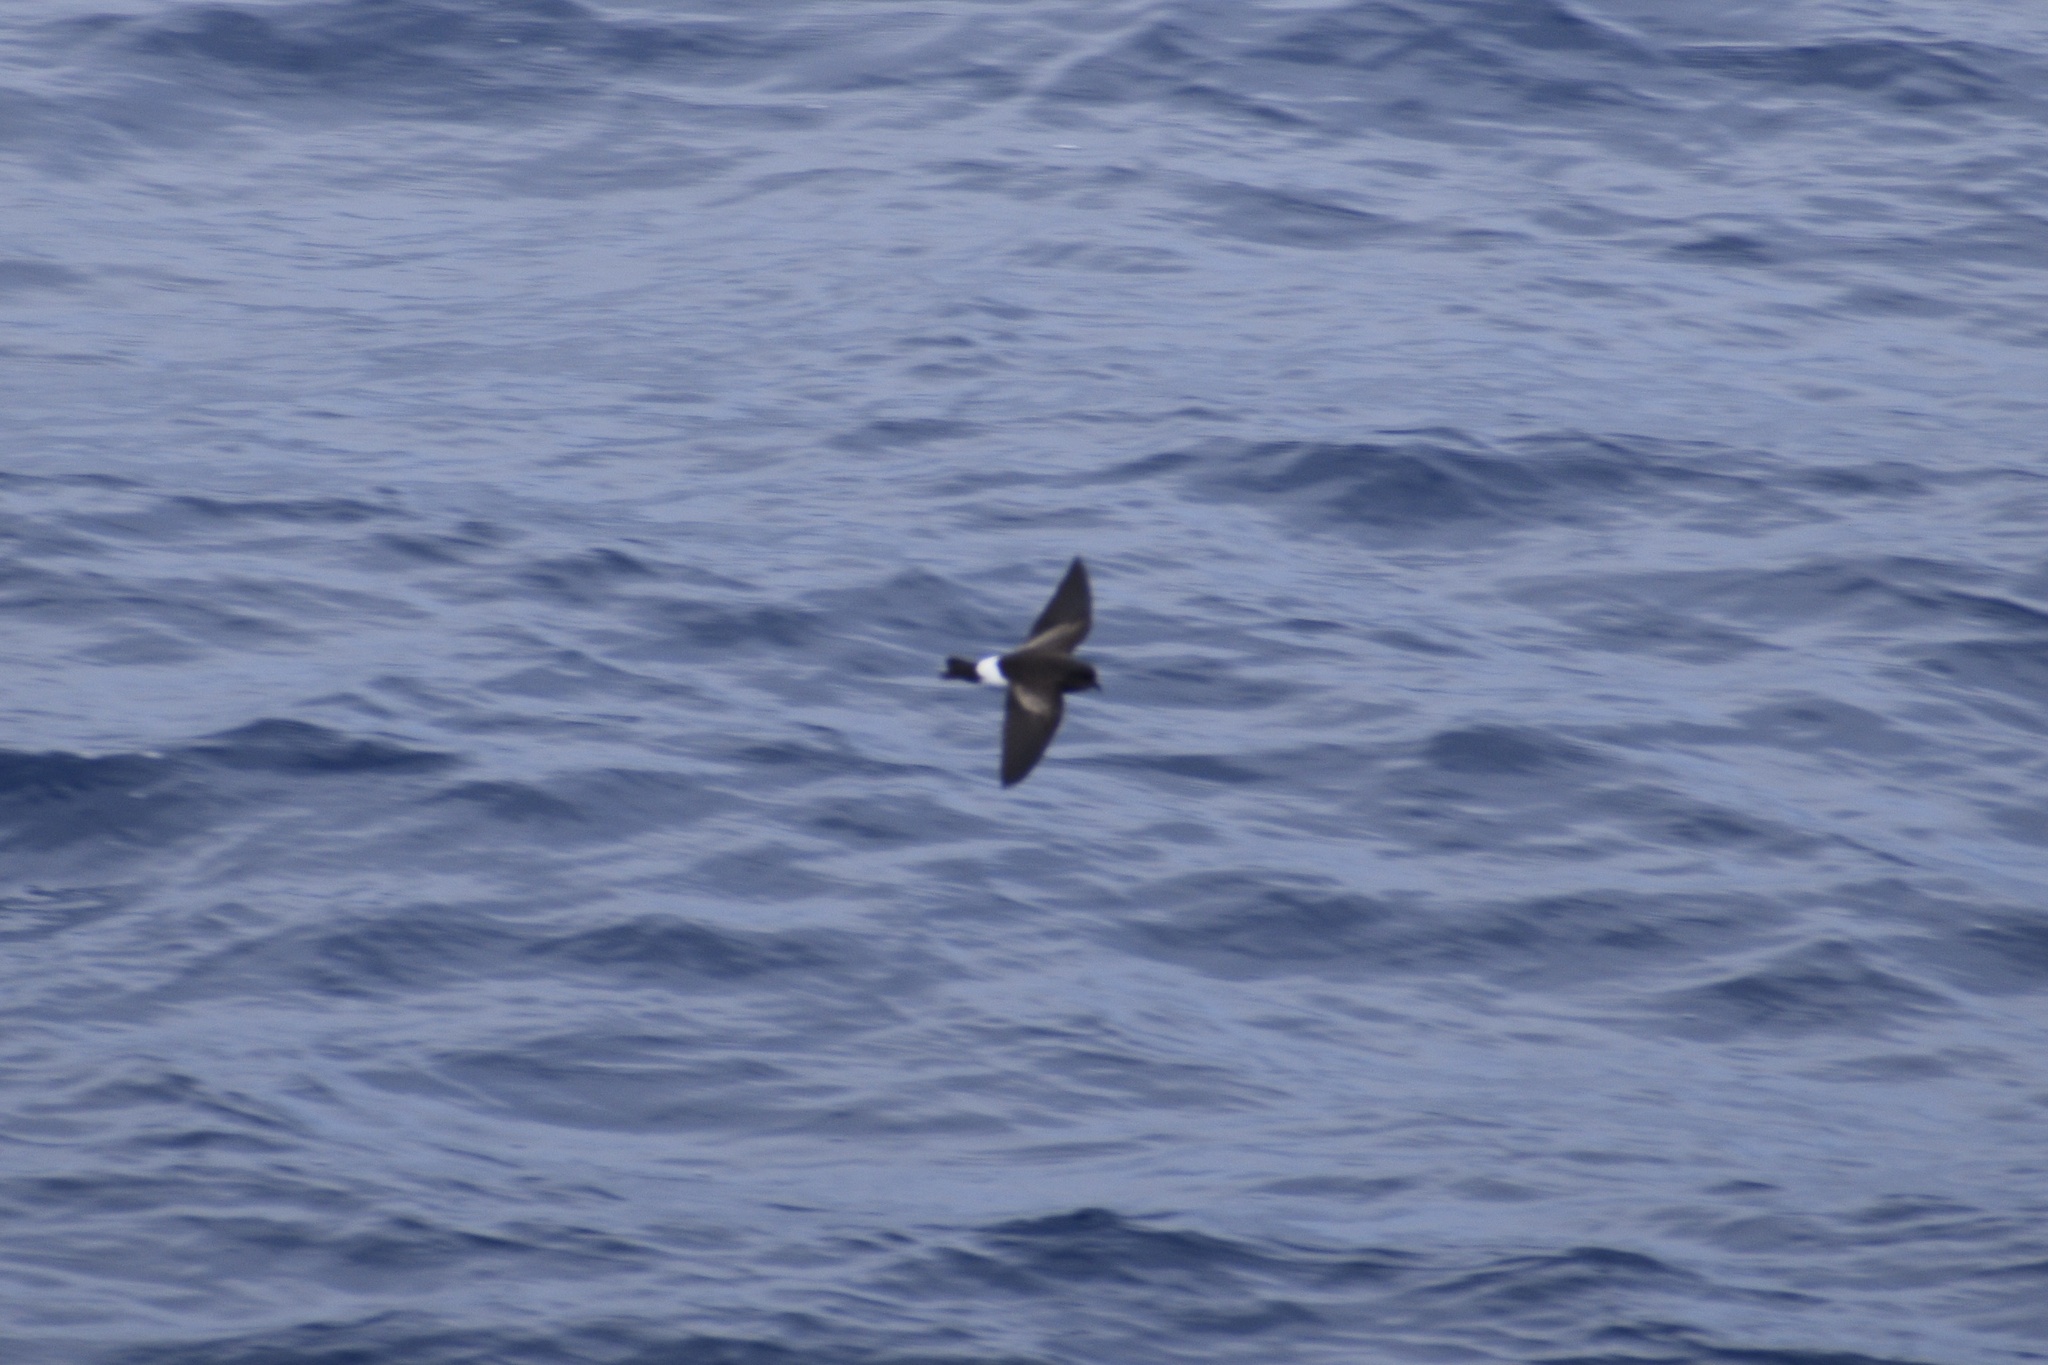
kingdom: Animalia
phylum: Chordata
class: Aves
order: Procellariiformes
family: Hydrobatidae
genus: Oceanites
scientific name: Oceanites oceanicus
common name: Wilson's storm petrel
